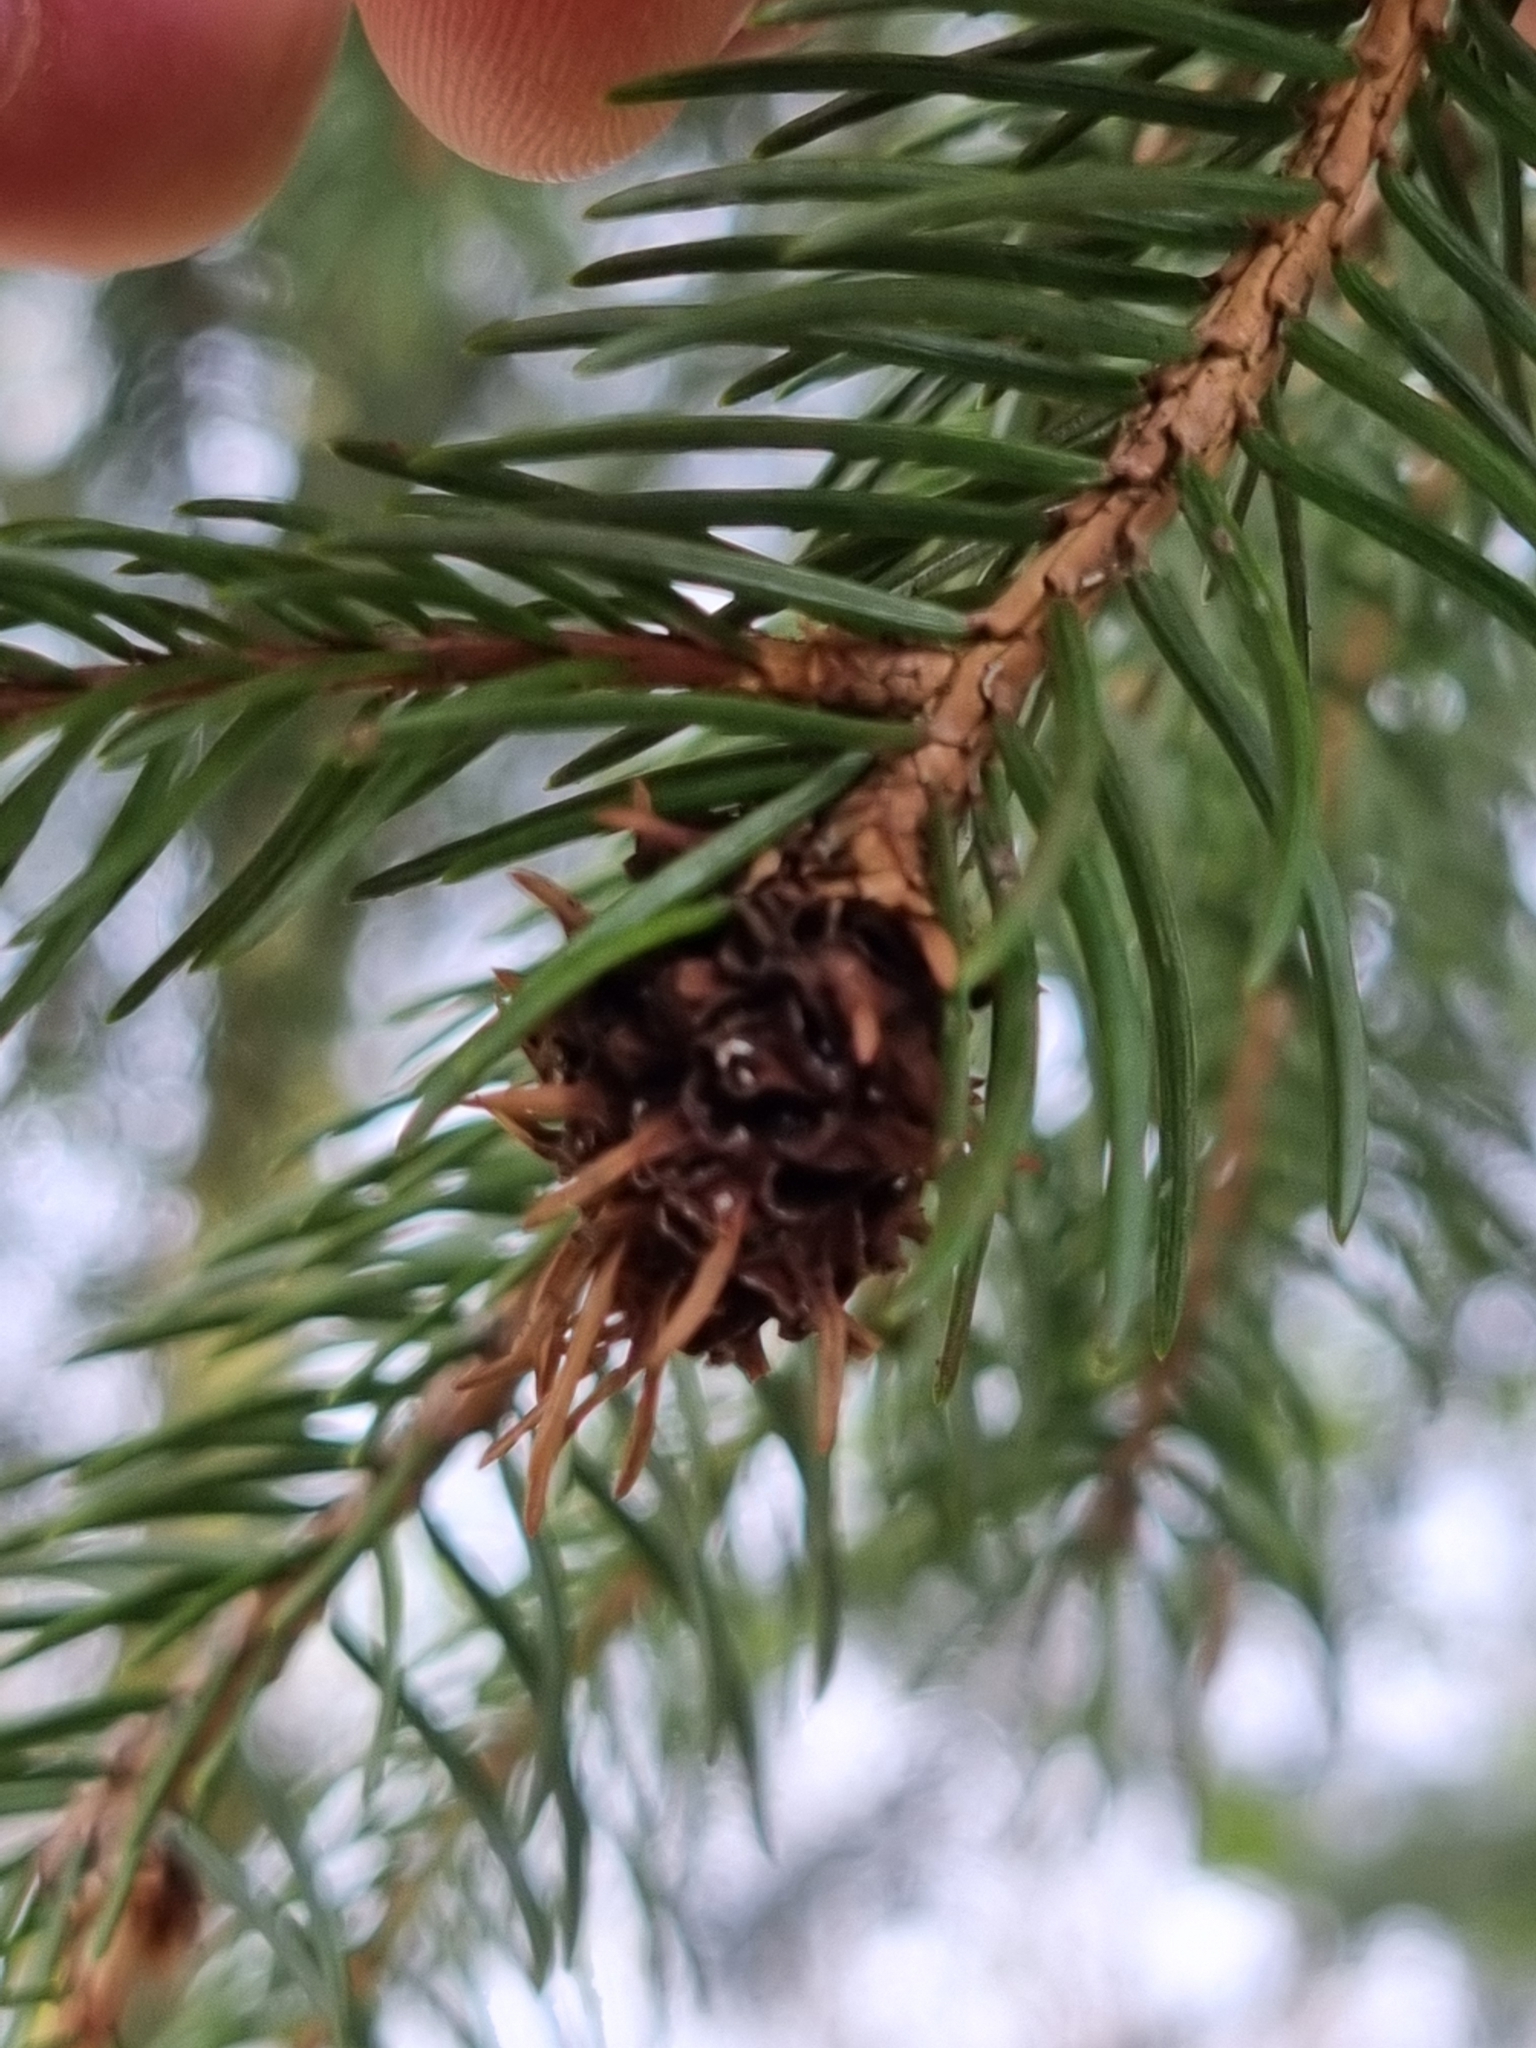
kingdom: Animalia
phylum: Arthropoda
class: Insecta
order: Hemiptera
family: Adelgidae
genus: Adelges
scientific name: Adelges abietis
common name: Eastern spruce gall adelgid
